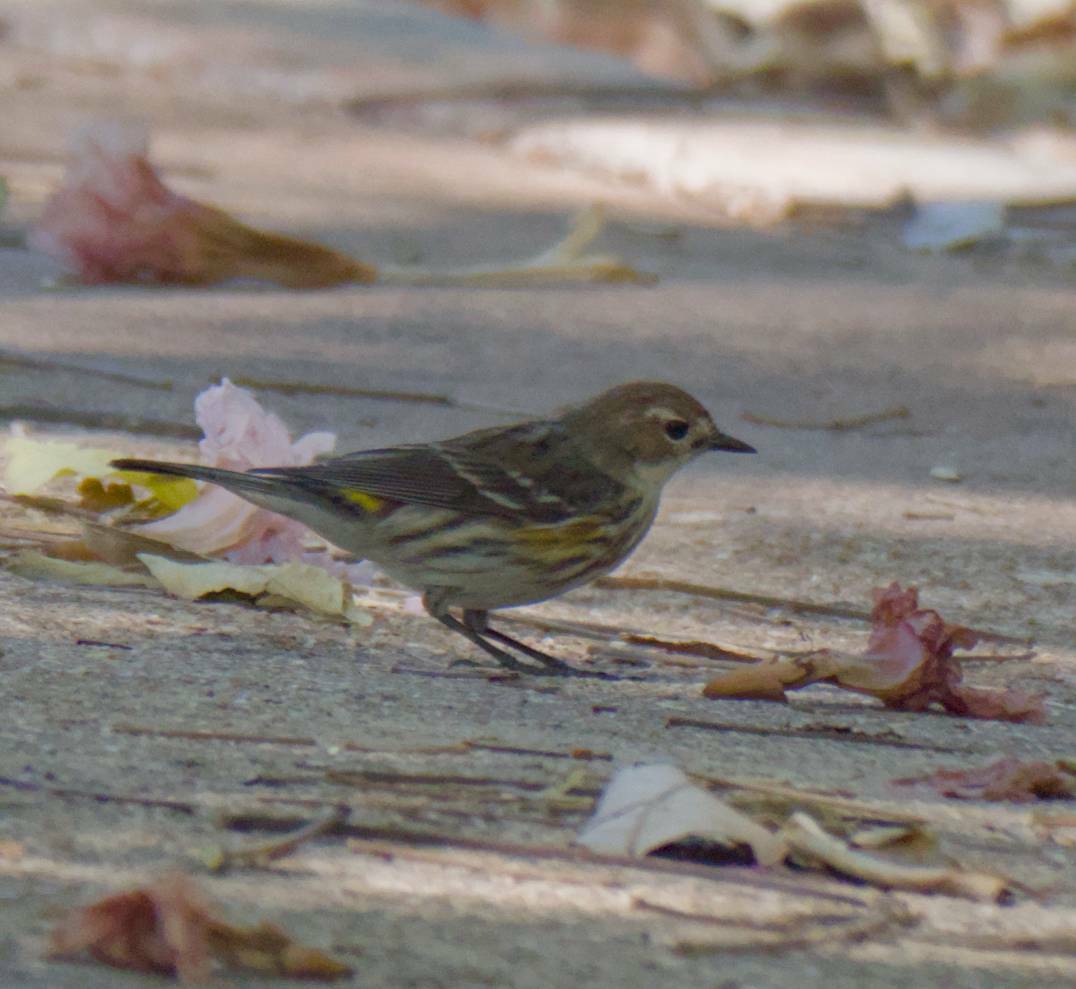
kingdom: Animalia
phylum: Chordata
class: Aves
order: Passeriformes
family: Parulidae
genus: Setophaga
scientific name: Setophaga coronata
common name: Myrtle warbler
